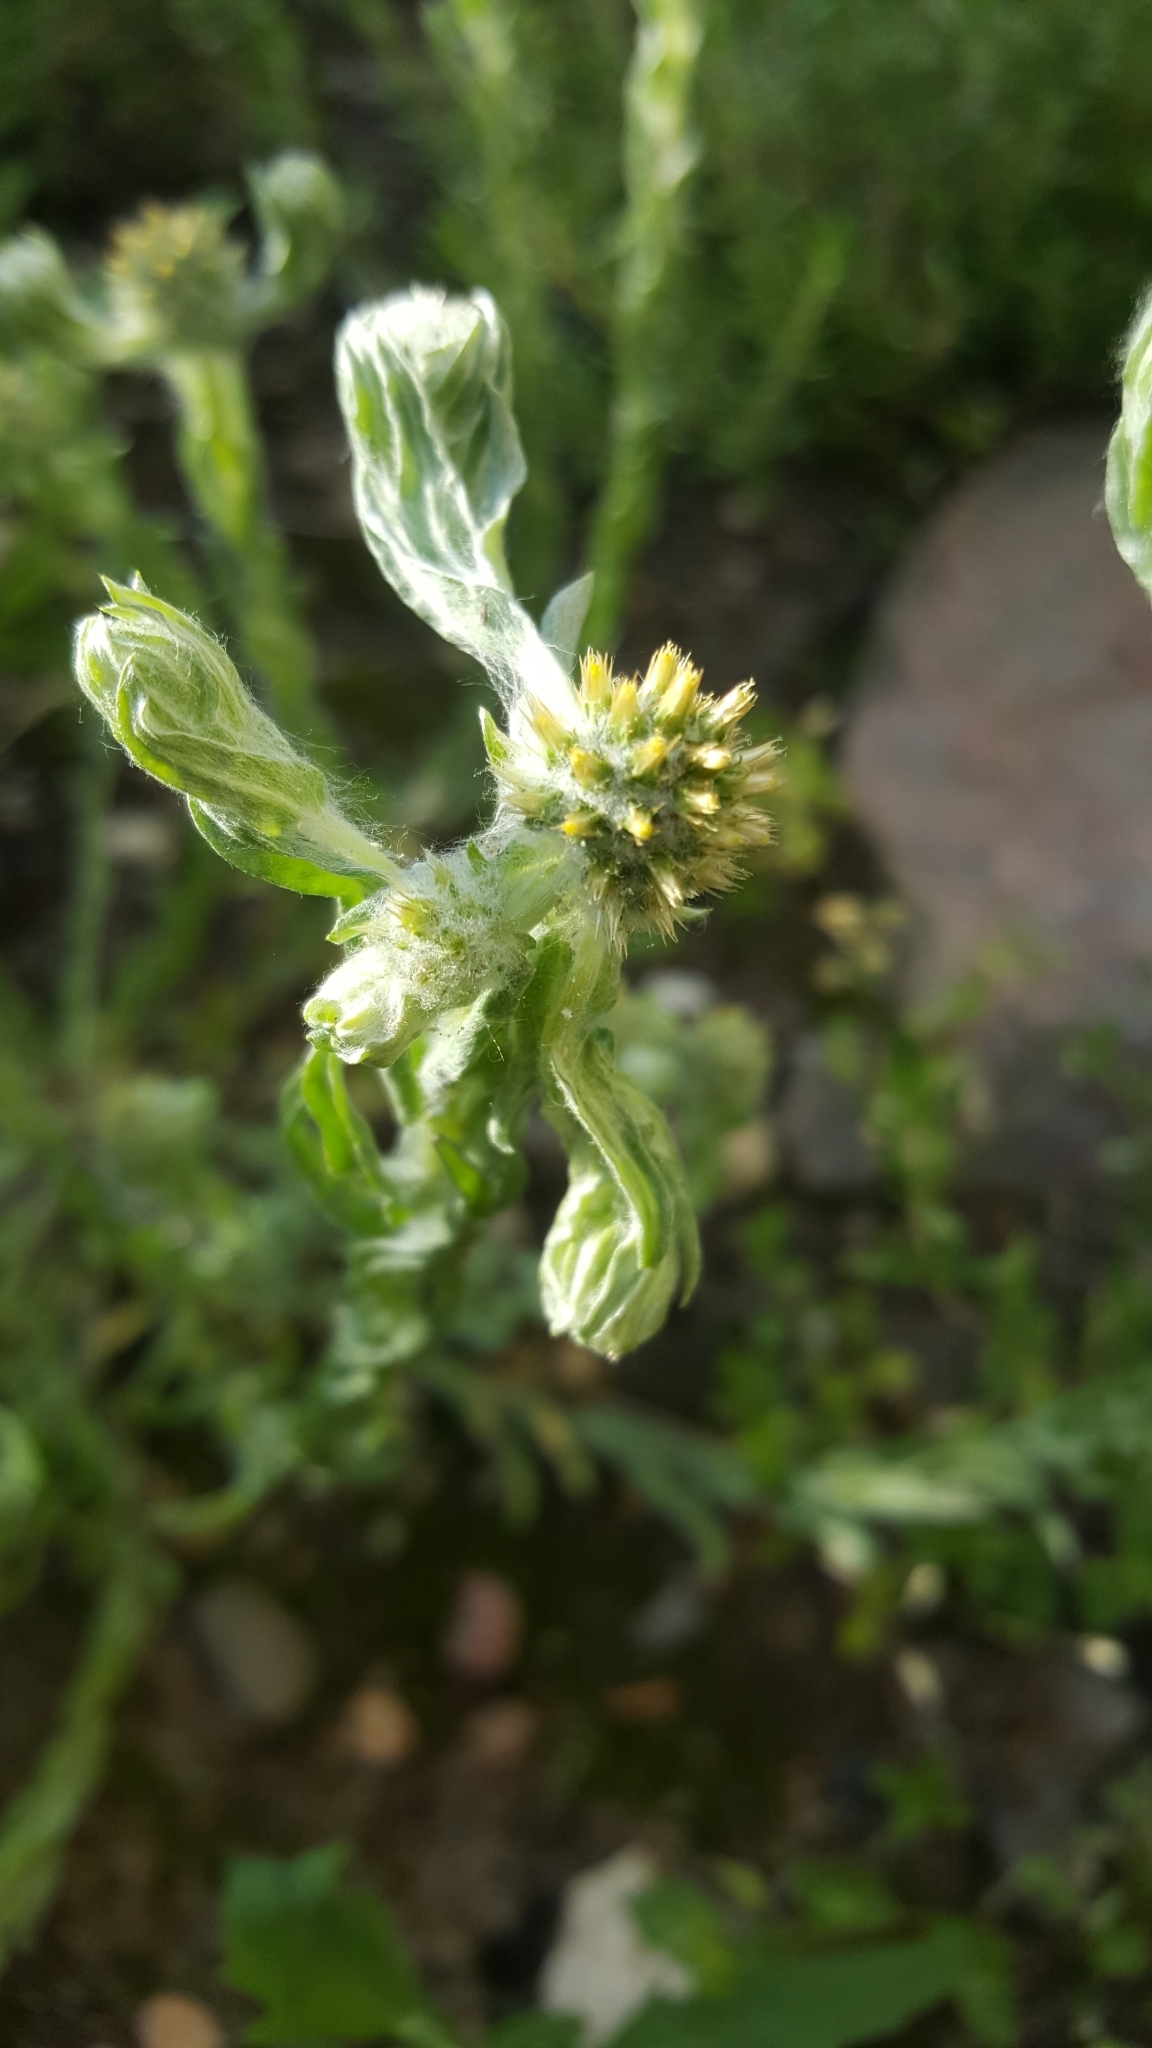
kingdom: Plantae
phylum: Tracheophyta
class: Magnoliopsida
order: Asterales
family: Asteraceae
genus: Filago
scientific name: Filago germanica
